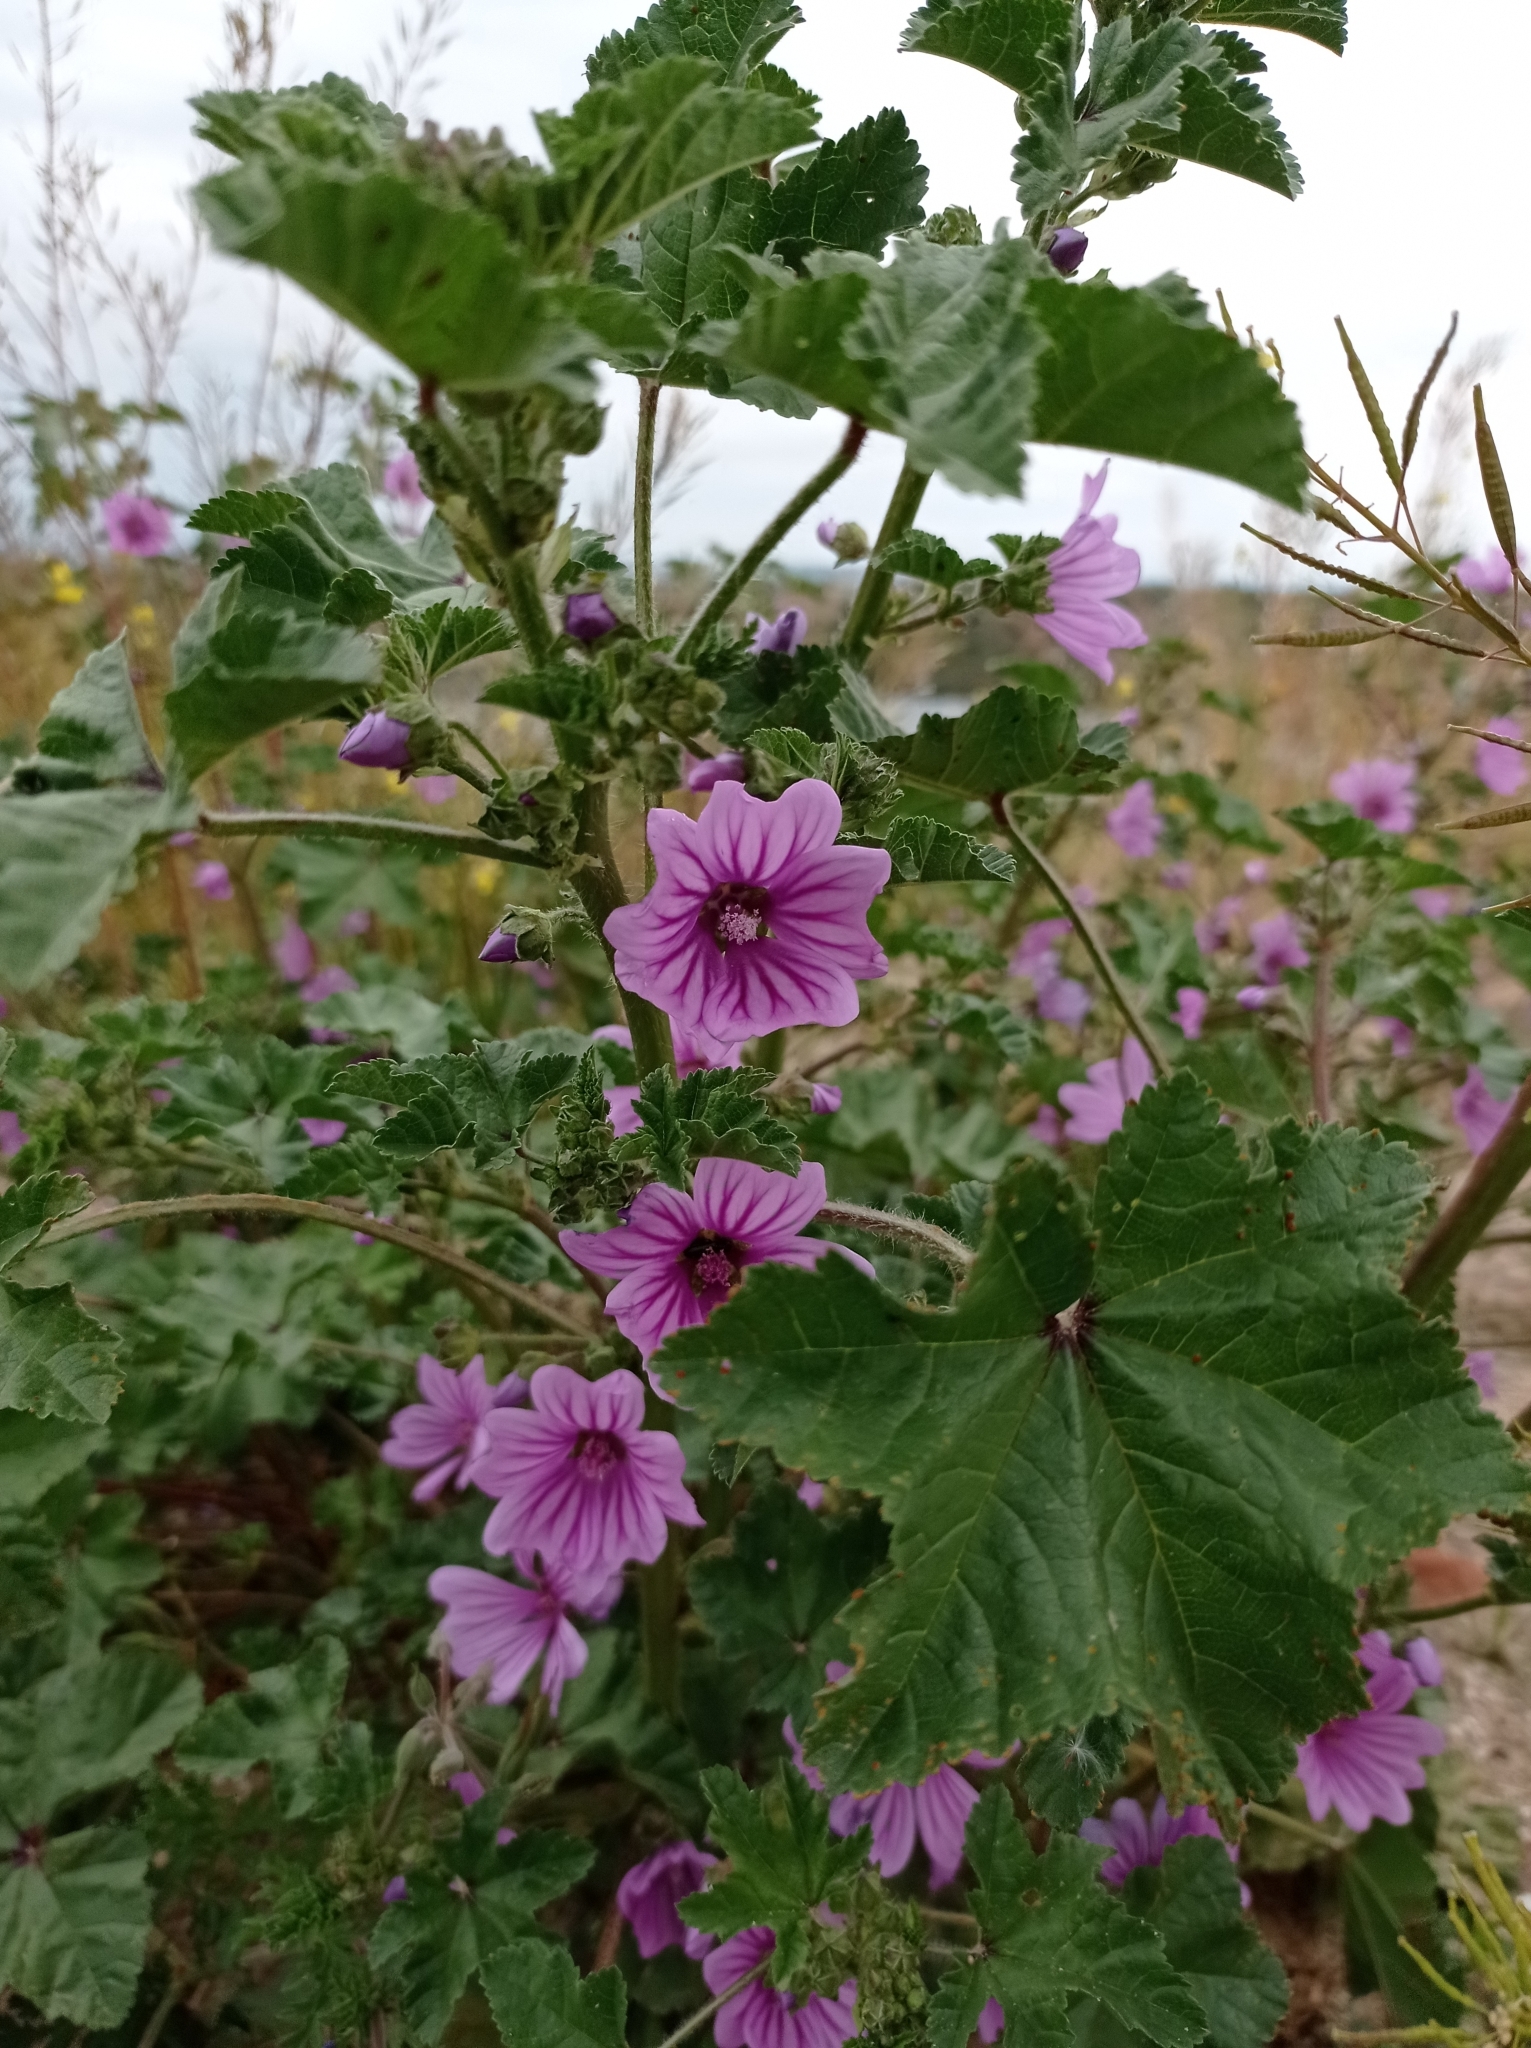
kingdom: Plantae
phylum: Tracheophyta
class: Magnoliopsida
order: Malvales
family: Malvaceae
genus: Malva
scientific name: Malva sylvestris
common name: Common mallow
